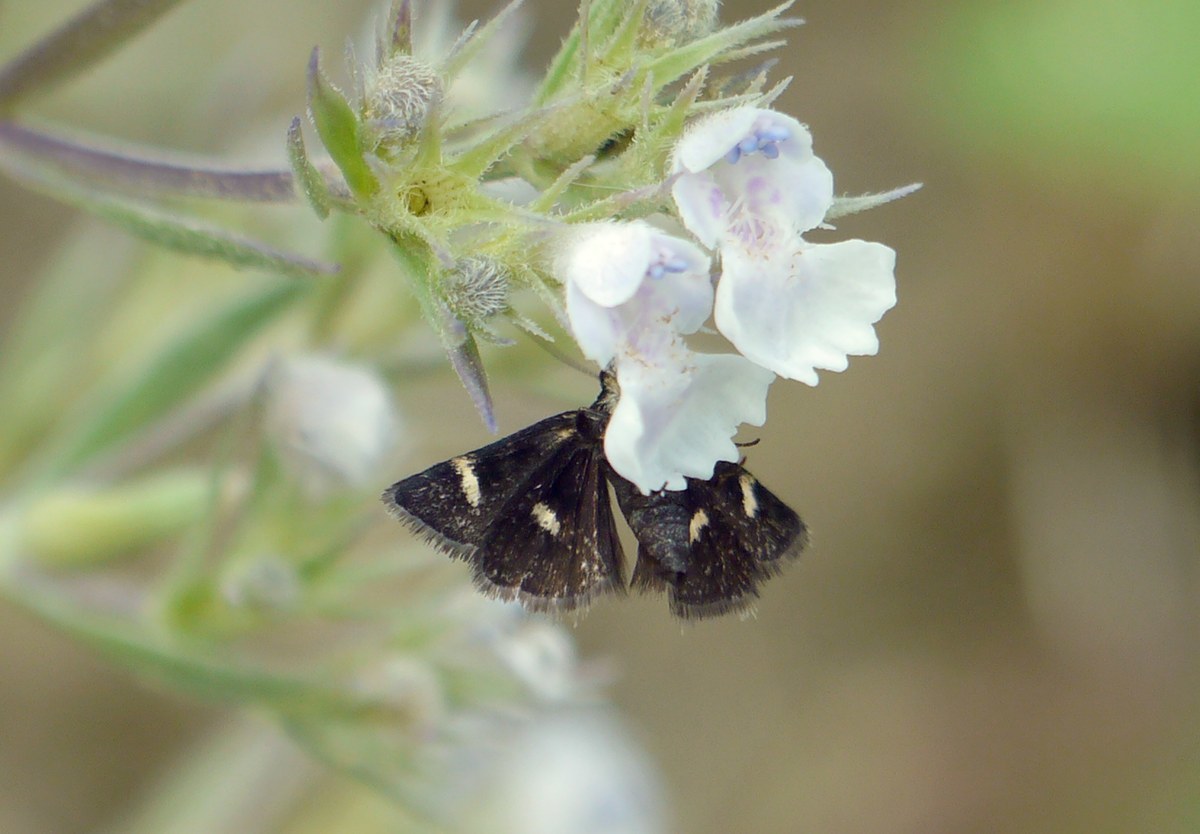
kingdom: Animalia
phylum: Arthropoda
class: Insecta
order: Lepidoptera
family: Crambidae
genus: Heliothela
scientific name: Heliothela wulfeniana
